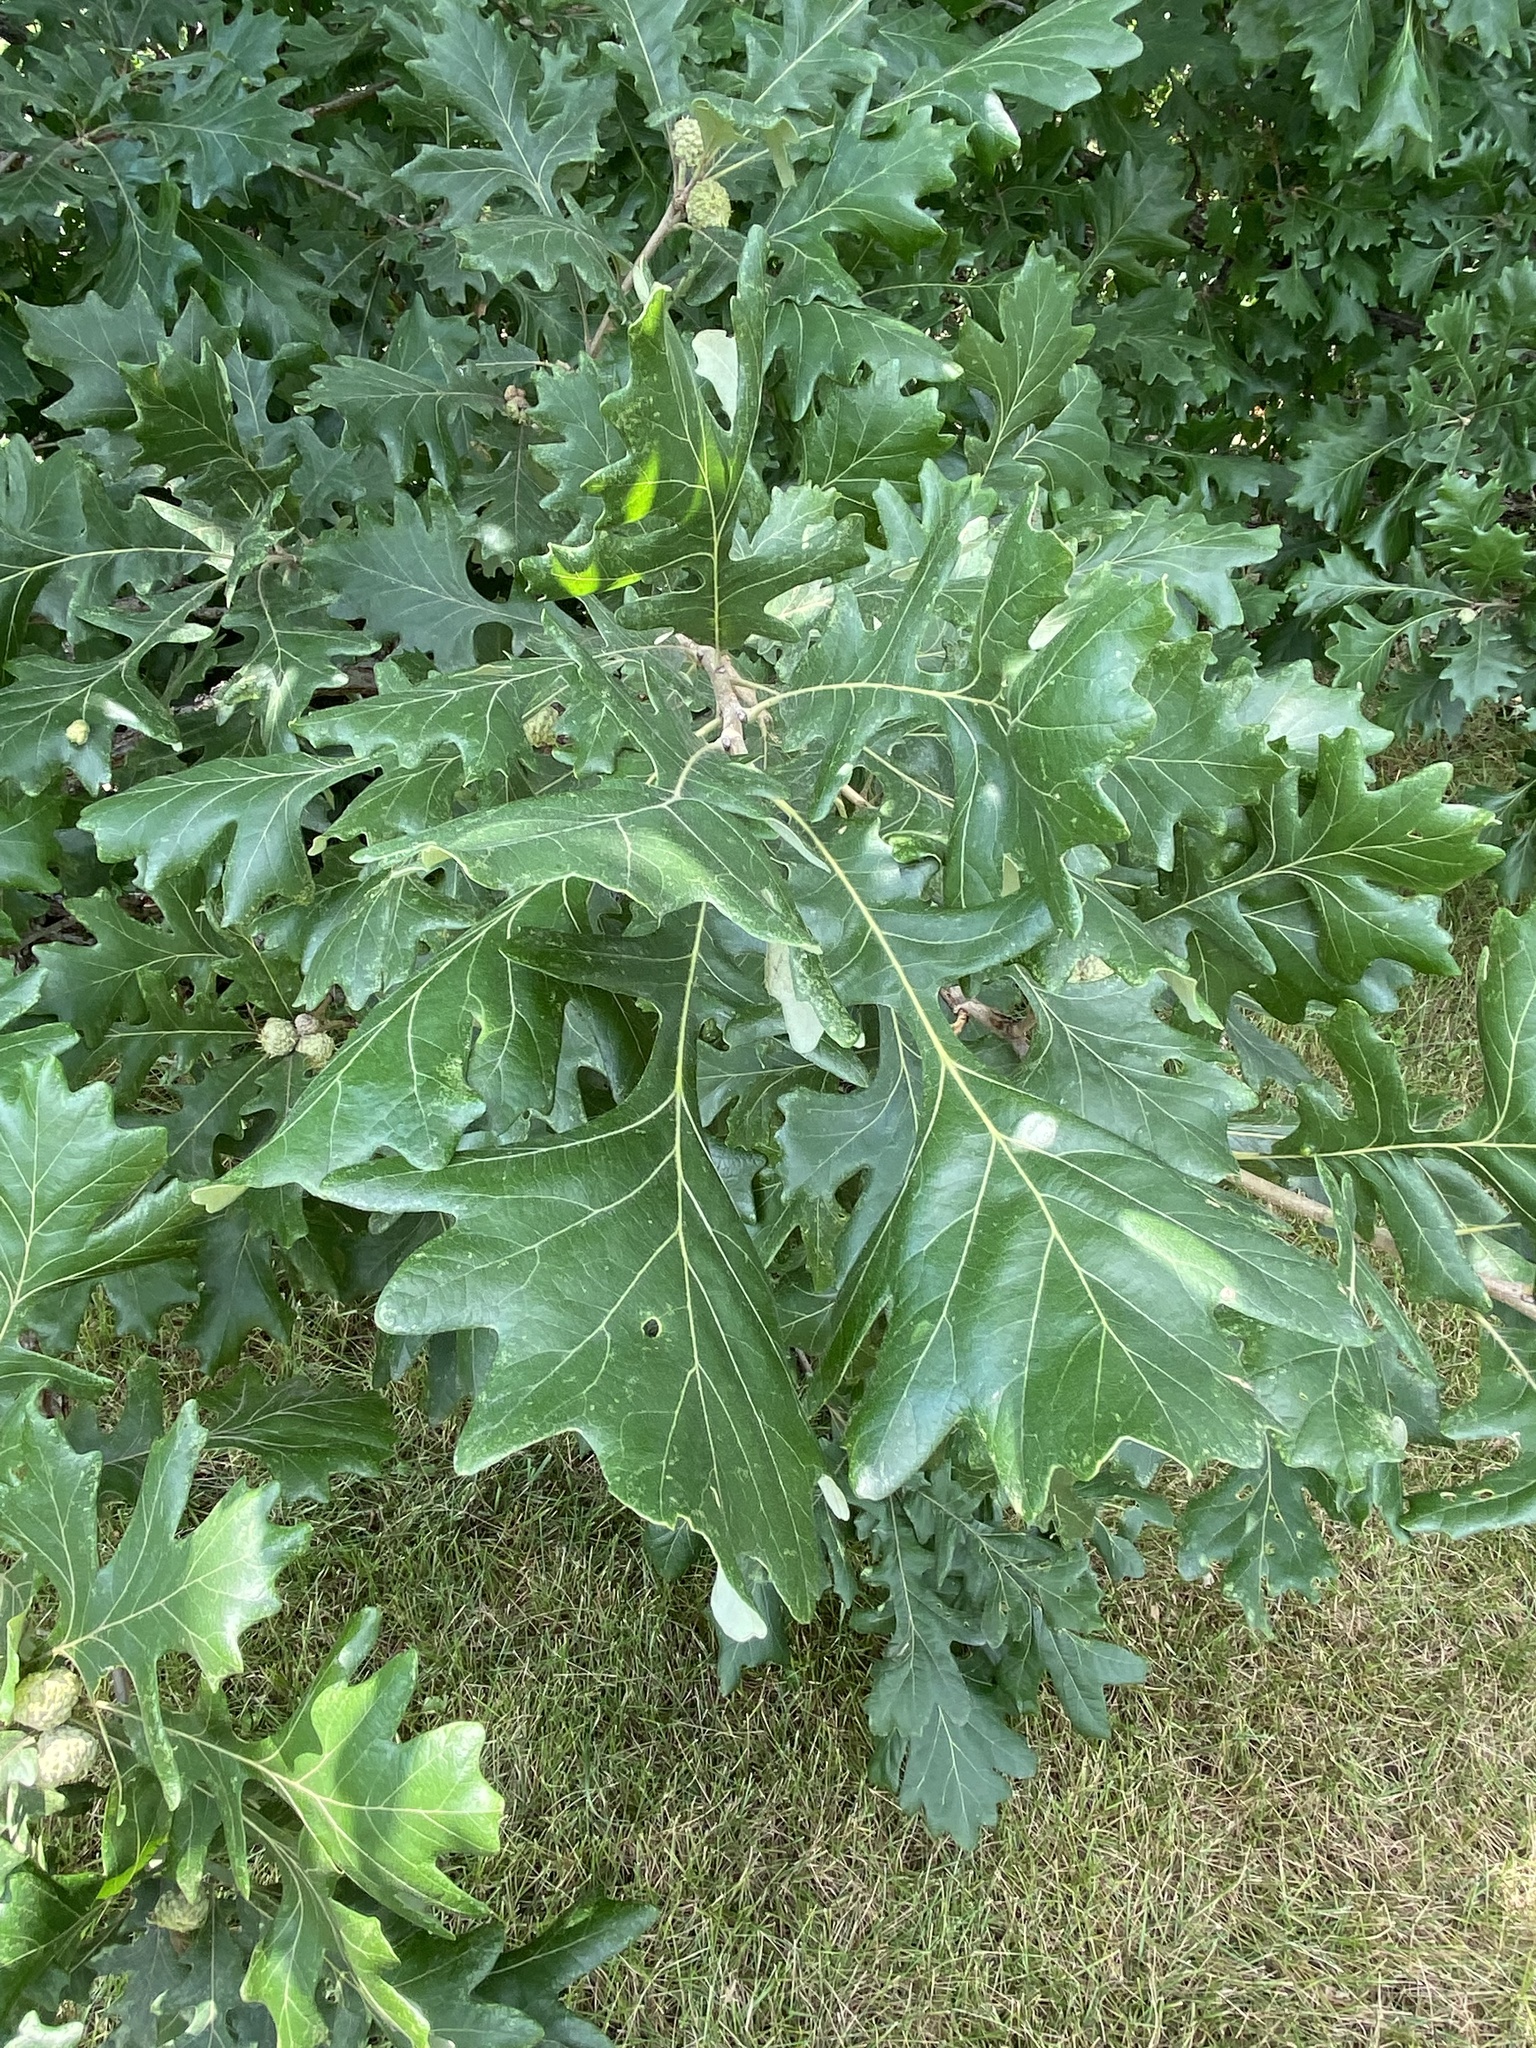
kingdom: Plantae
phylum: Tracheophyta
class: Magnoliopsida
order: Fagales
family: Fagaceae
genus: Quercus
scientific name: Quercus macrocarpa
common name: Bur oak
